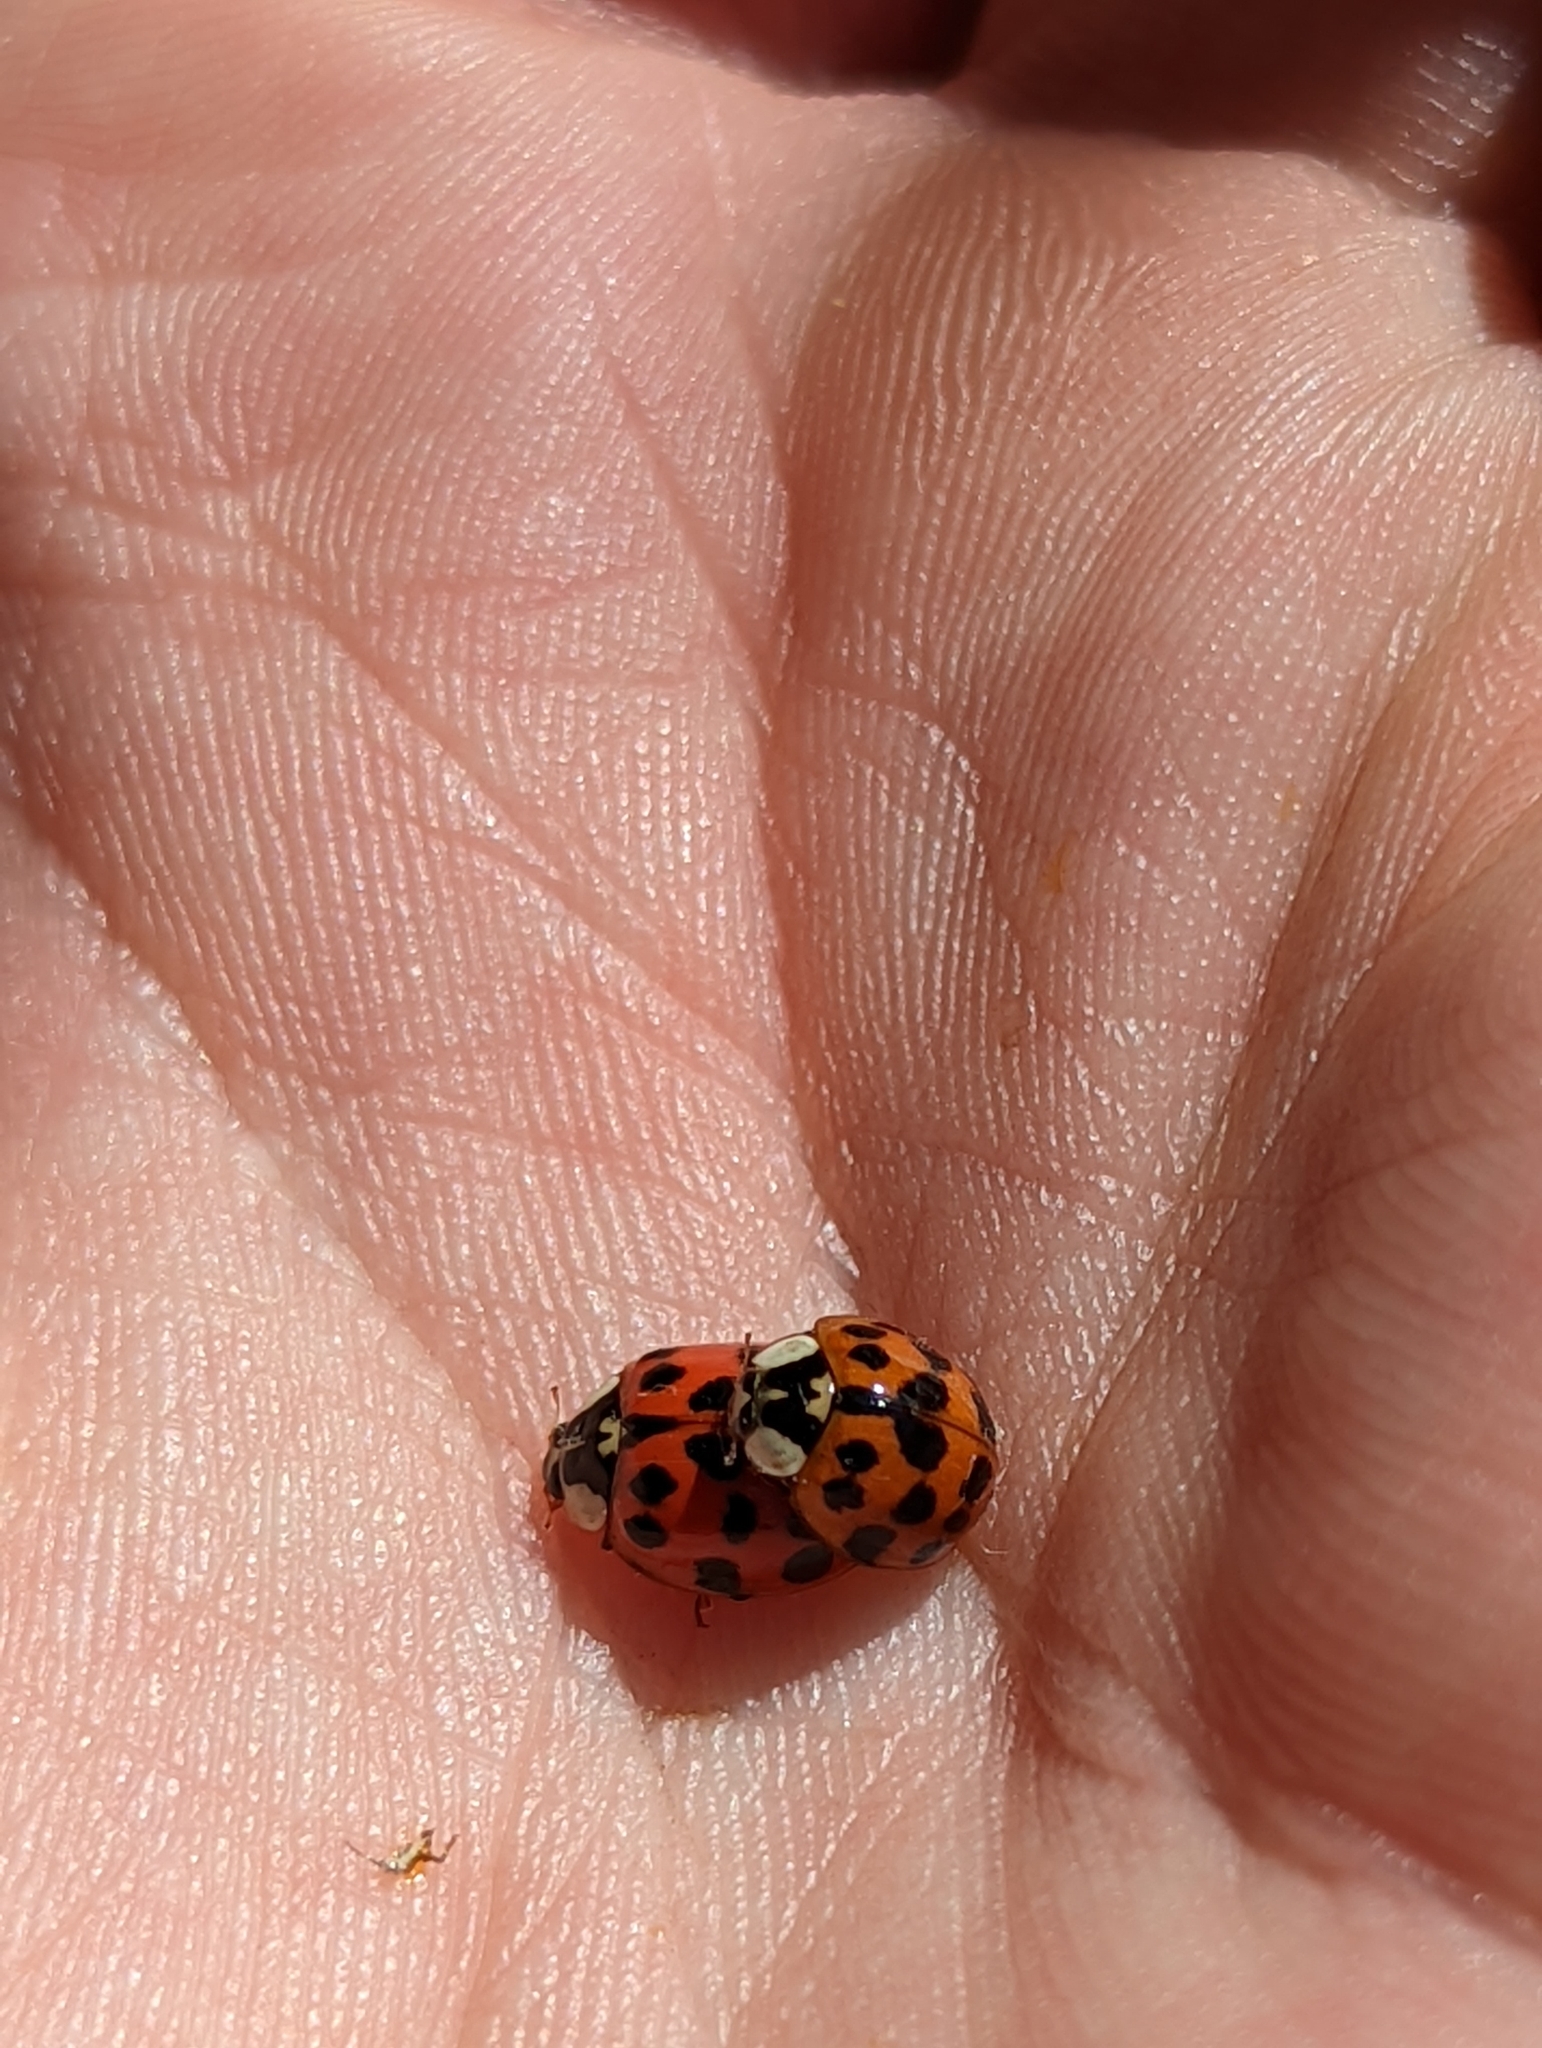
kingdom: Animalia
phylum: Arthropoda
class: Insecta
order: Coleoptera
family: Coccinellidae
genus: Harmonia
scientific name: Harmonia axyridis
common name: Harlequin ladybird
